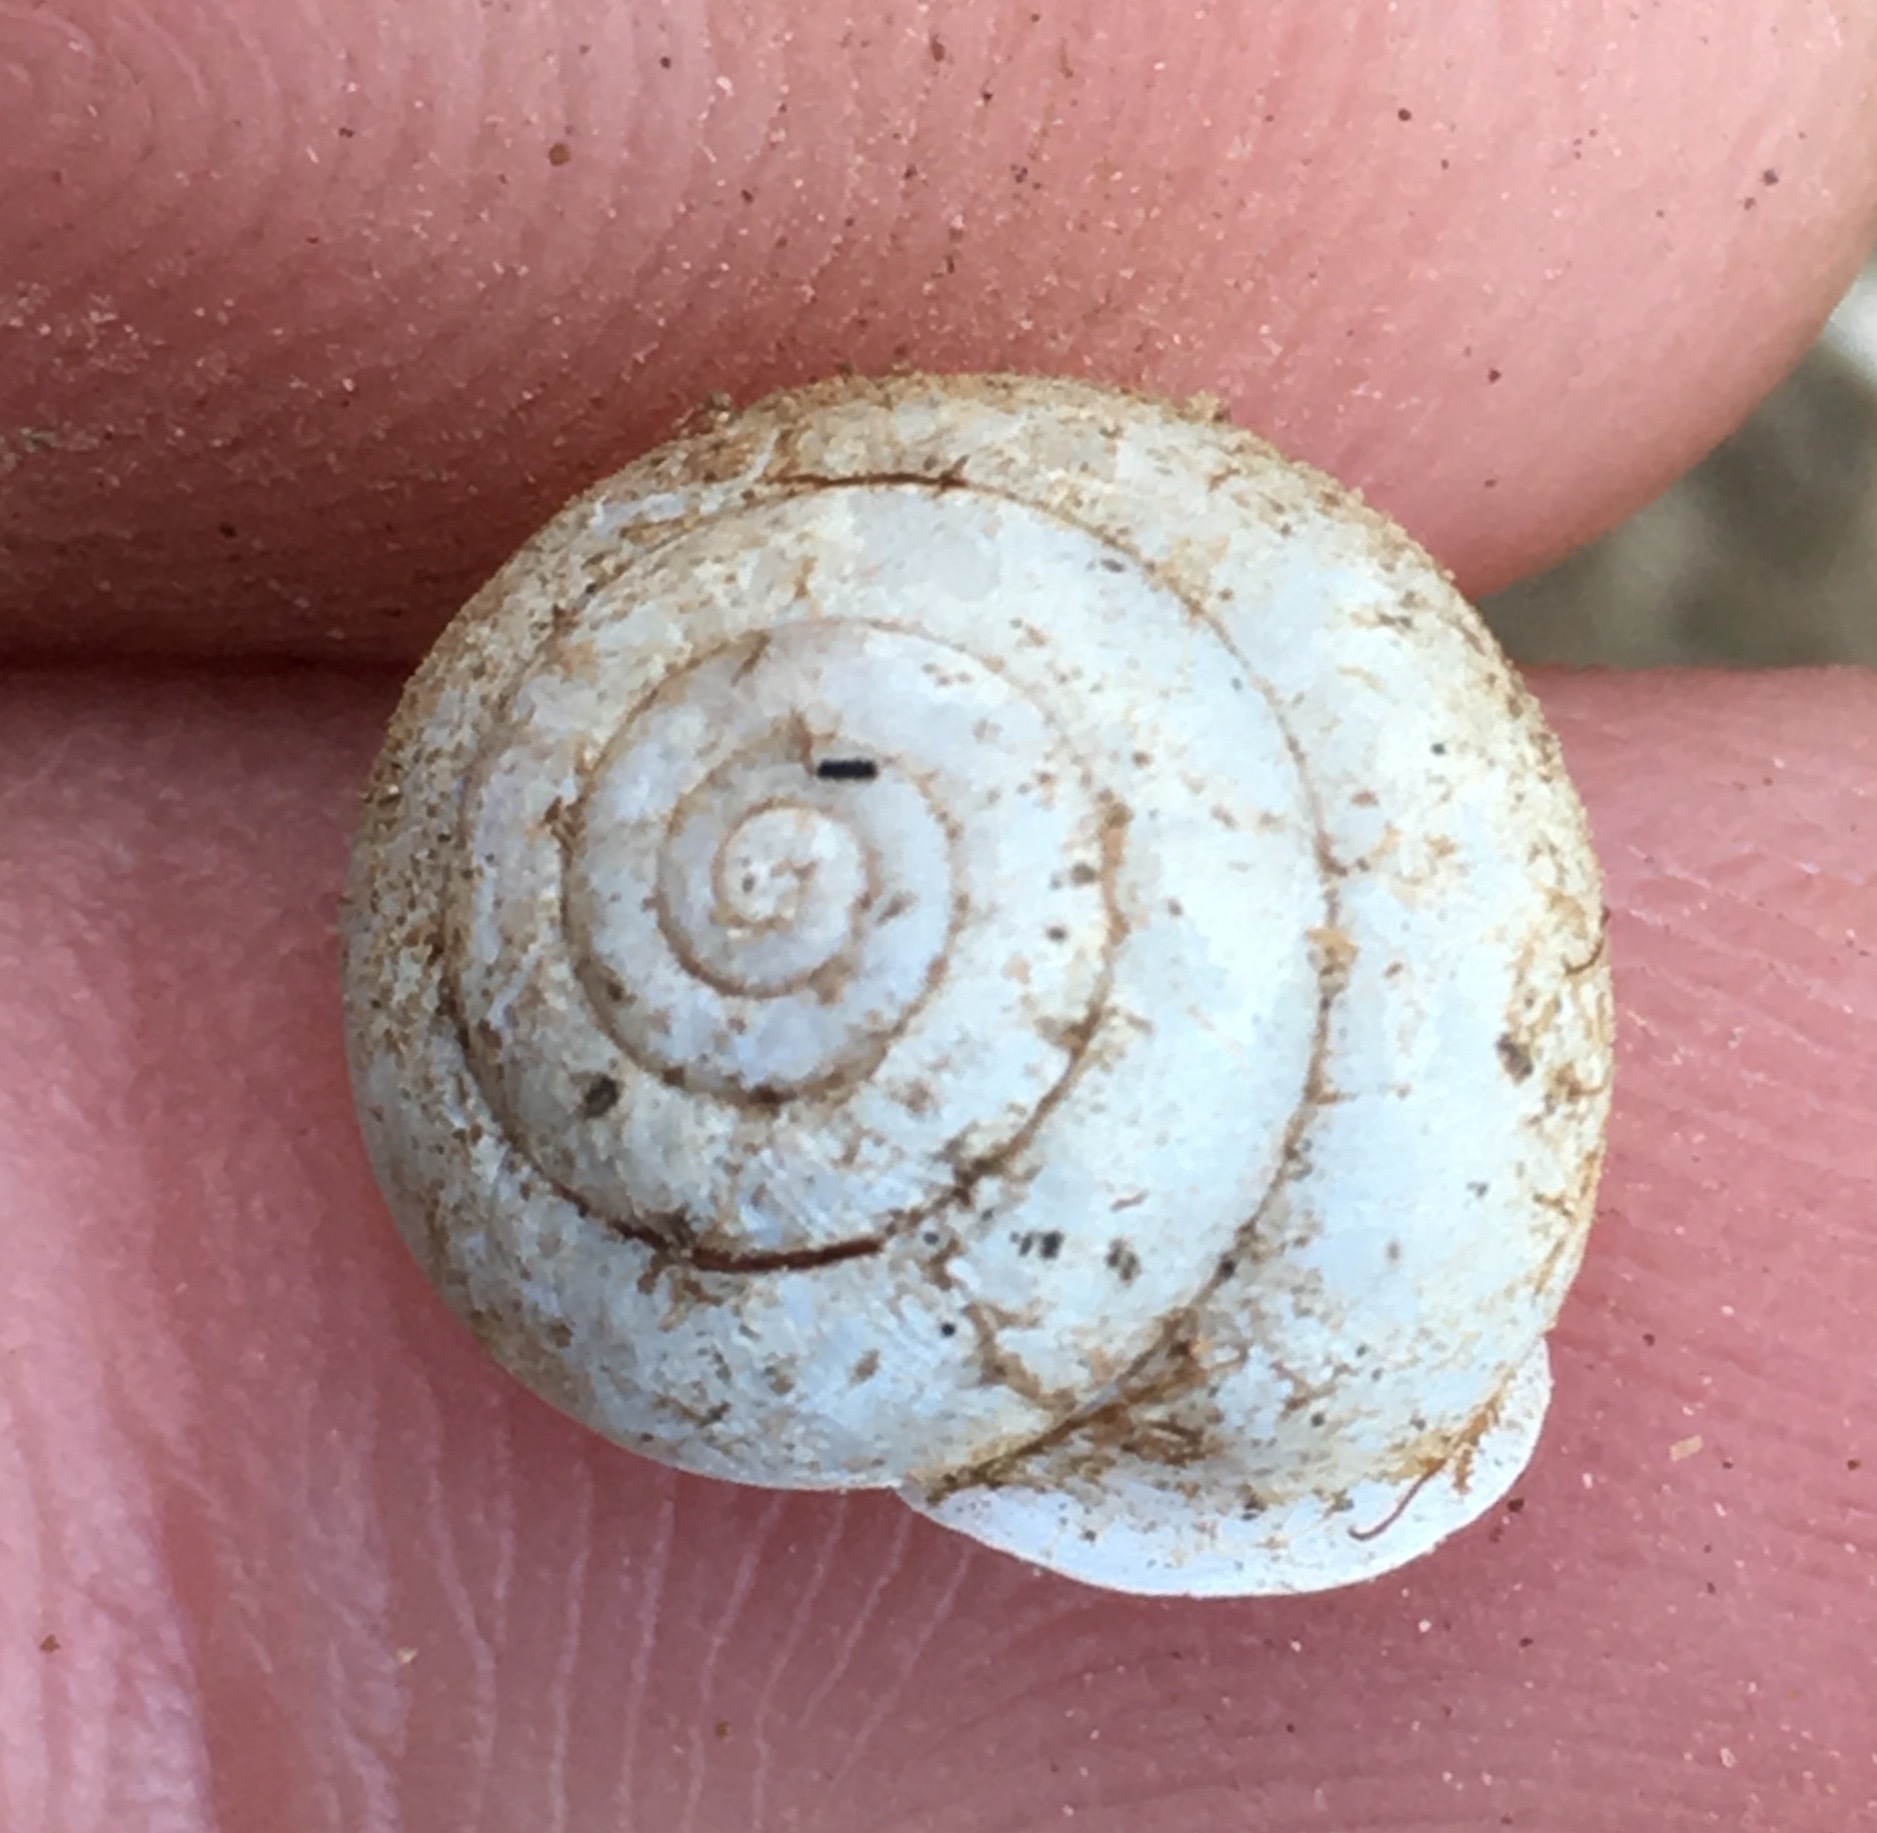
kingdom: Animalia
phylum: Mollusca
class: Gastropoda
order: Stylommatophora
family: Xanthonychidae
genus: Micrarionta
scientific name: Micrarionta facta
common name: Concentrated snail
